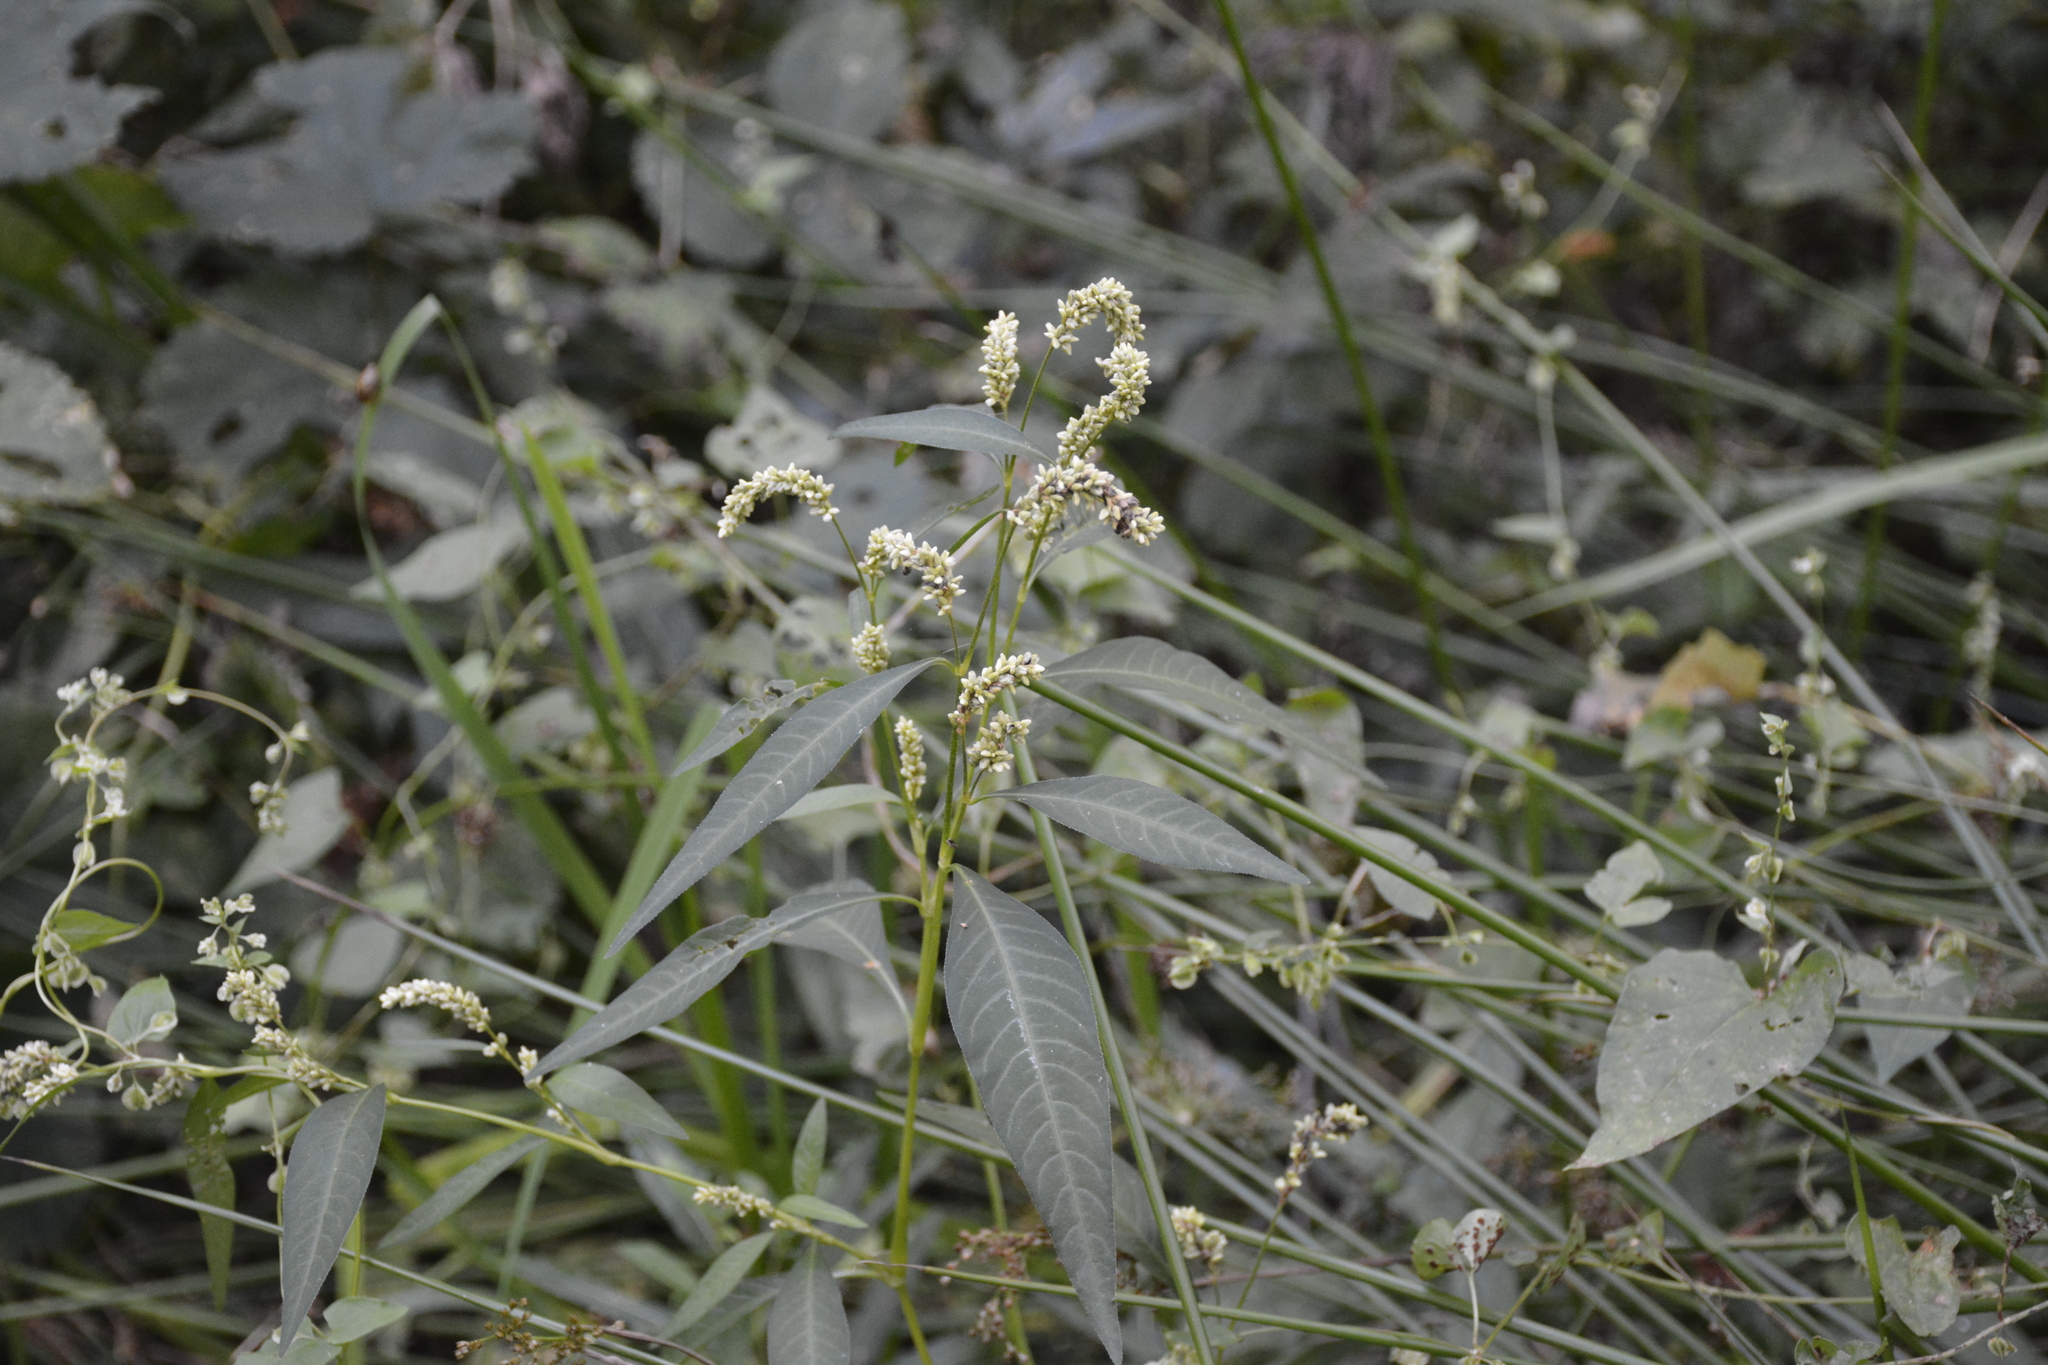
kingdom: Plantae
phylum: Tracheophyta
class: Magnoliopsida
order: Caryophyllales
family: Polygonaceae
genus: Persicaria
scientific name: Persicaria lapathifolia
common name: Curlytop knotweed
